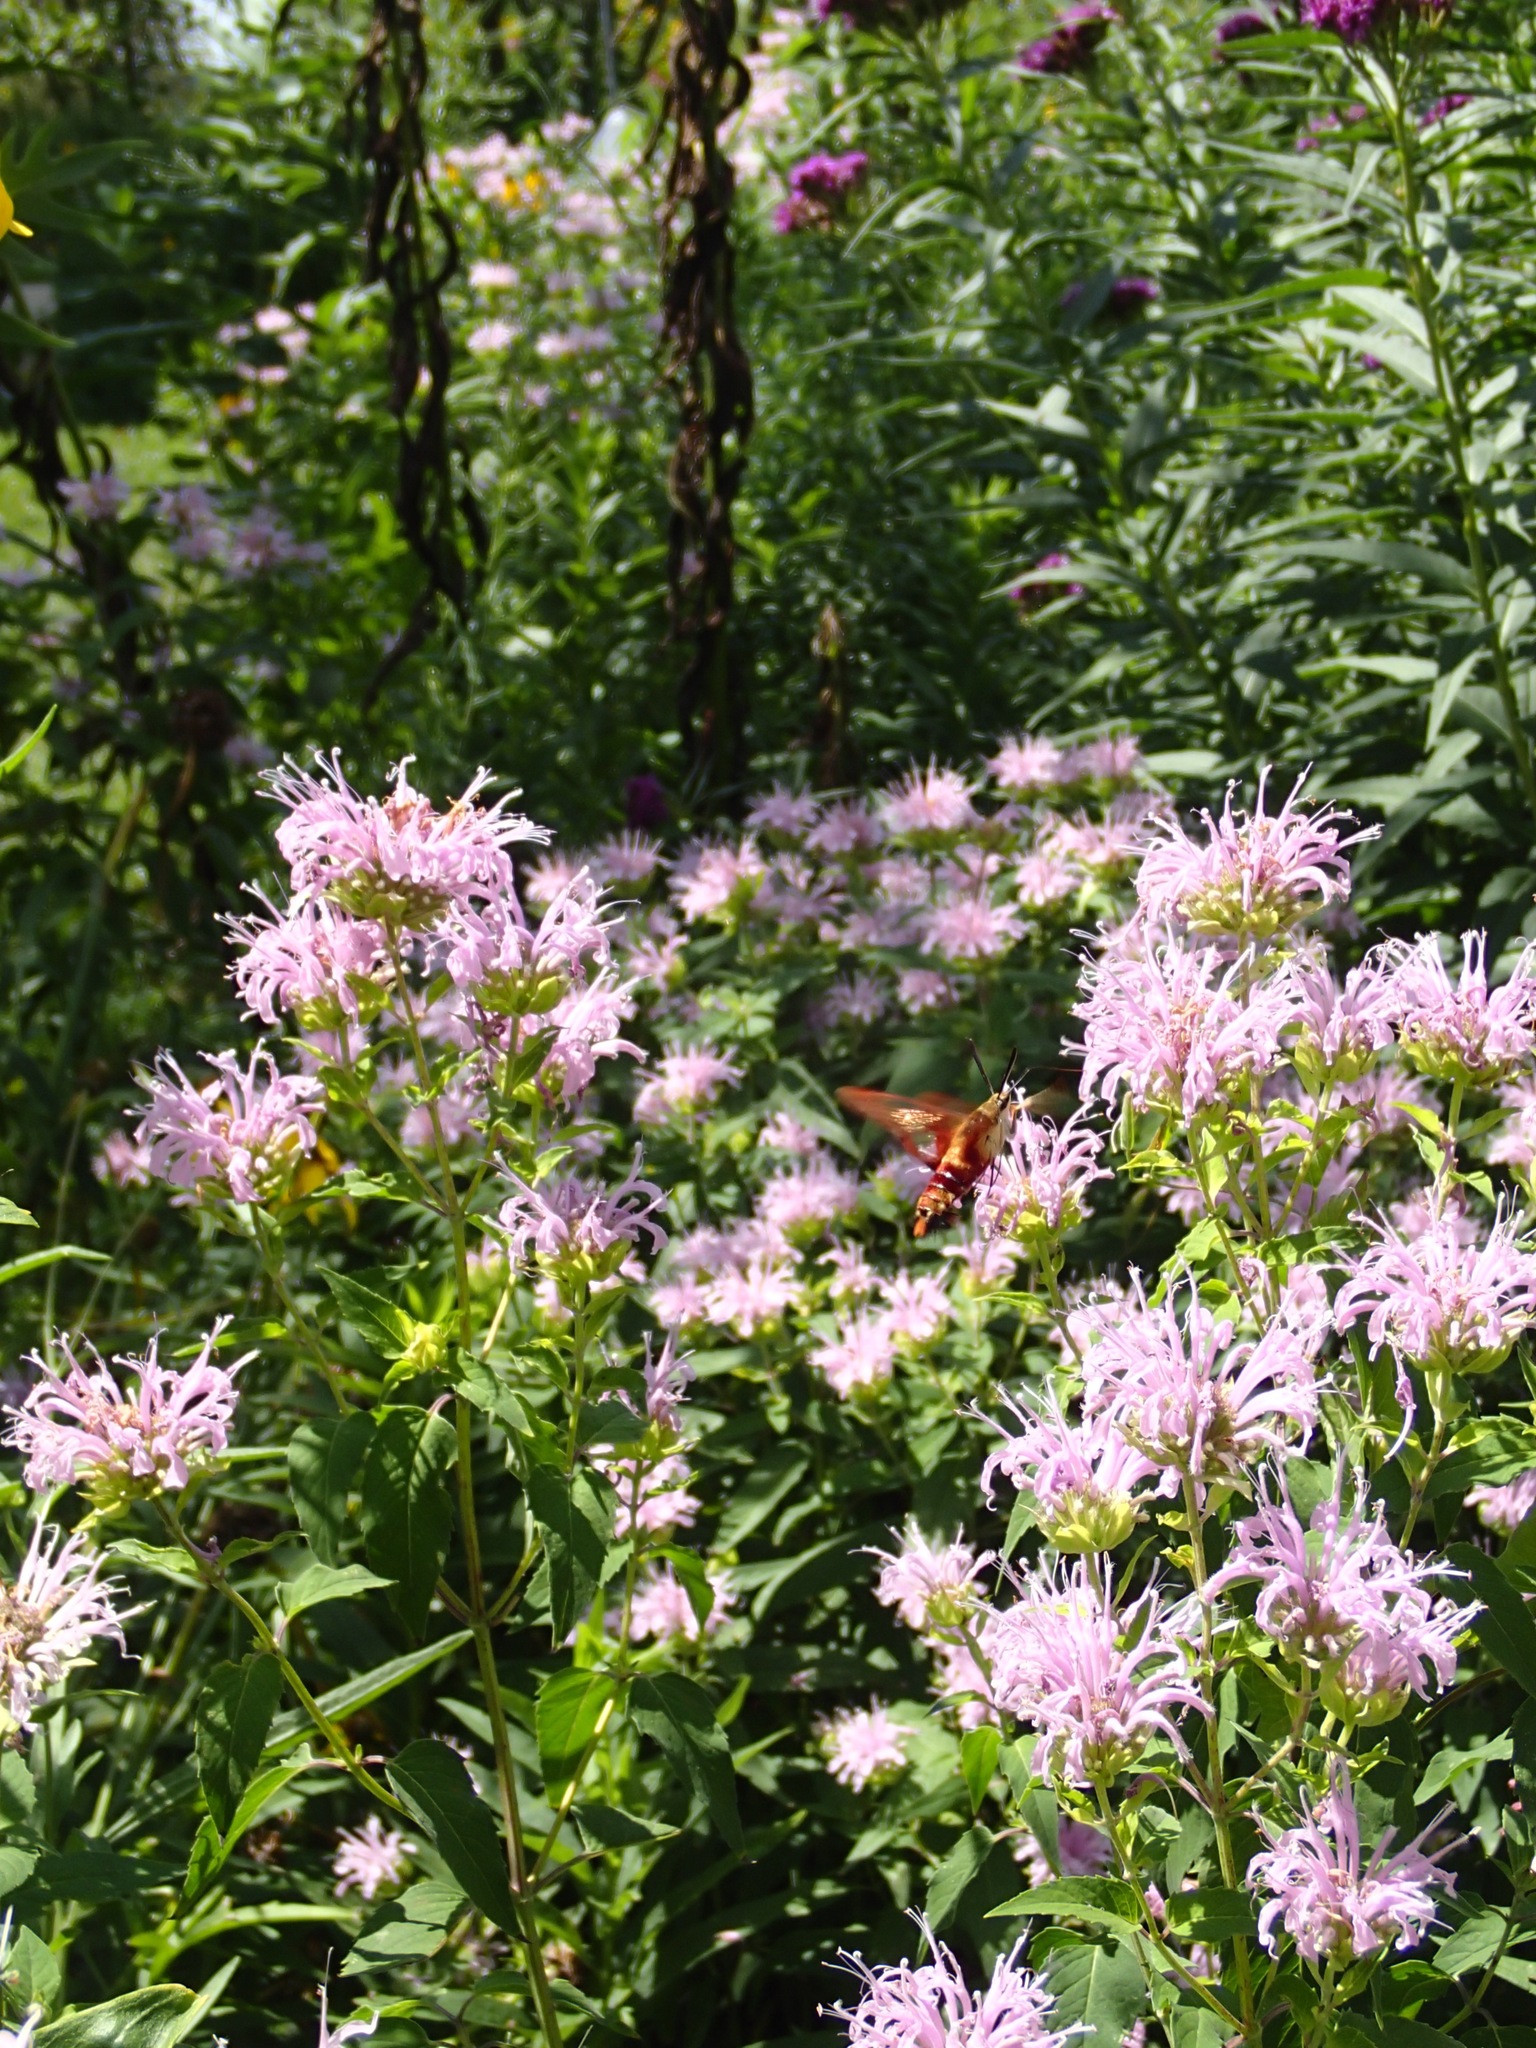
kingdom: Animalia
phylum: Arthropoda
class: Insecta
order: Lepidoptera
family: Sphingidae
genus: Hemaris
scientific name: Hemaris thysbe
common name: Common clear-wing
